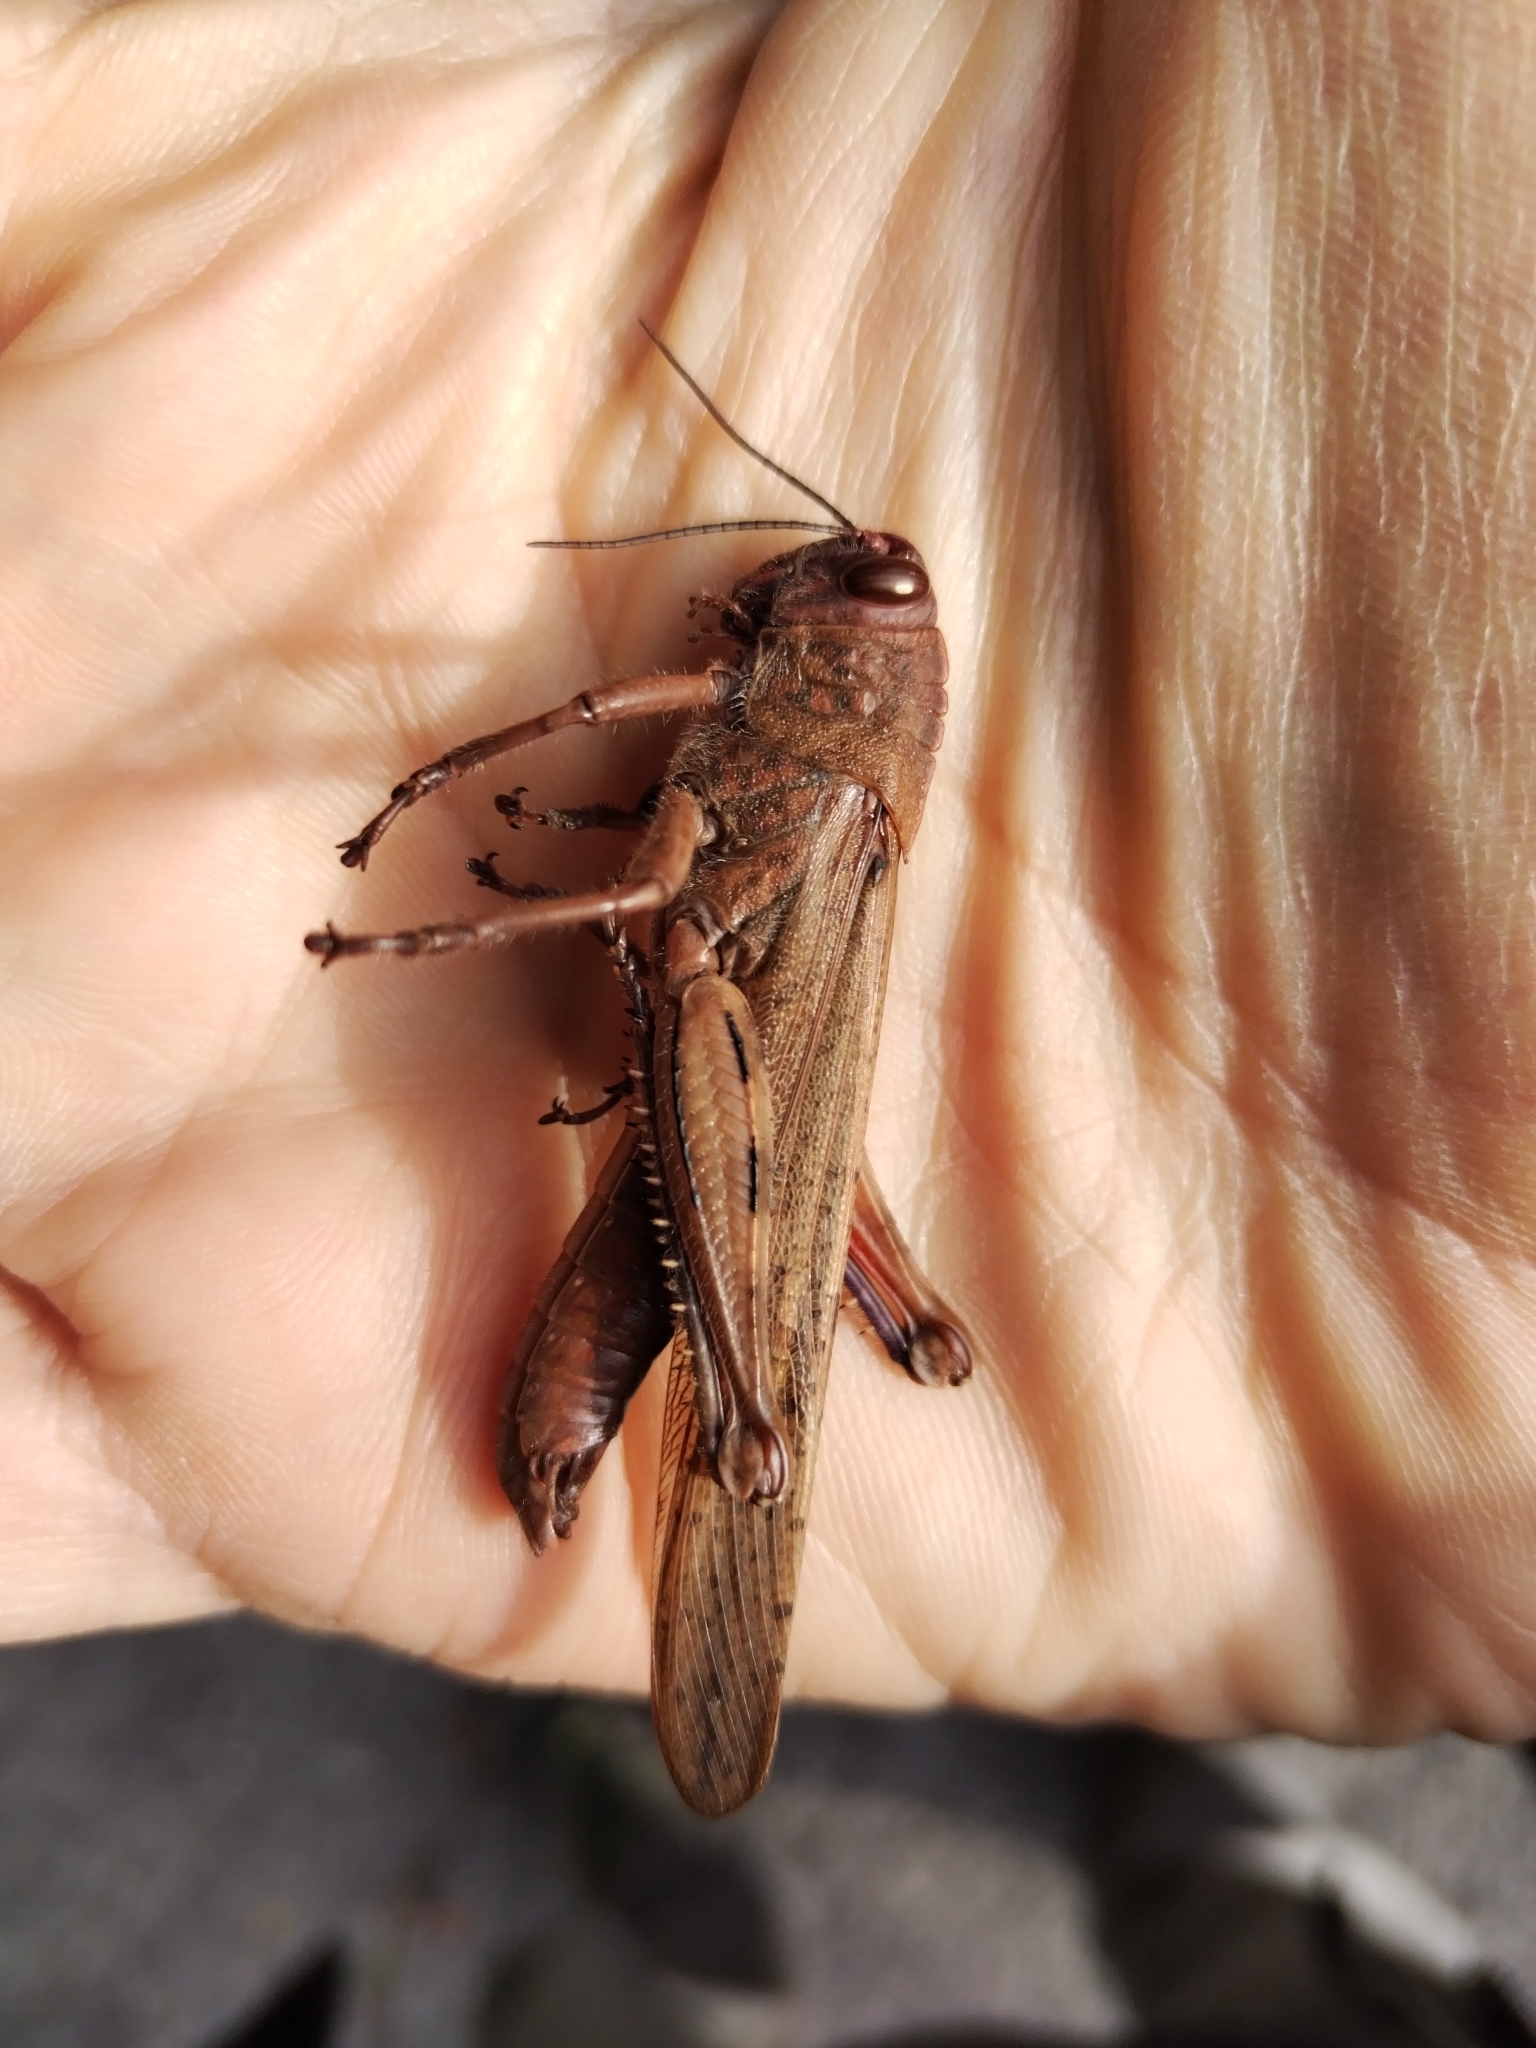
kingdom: Animalia
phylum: Arthropoda
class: Insecta
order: Orthoptera
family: Acrididae
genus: Anacridium
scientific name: Anacridium aegyptium
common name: Egyptian grasshopper
